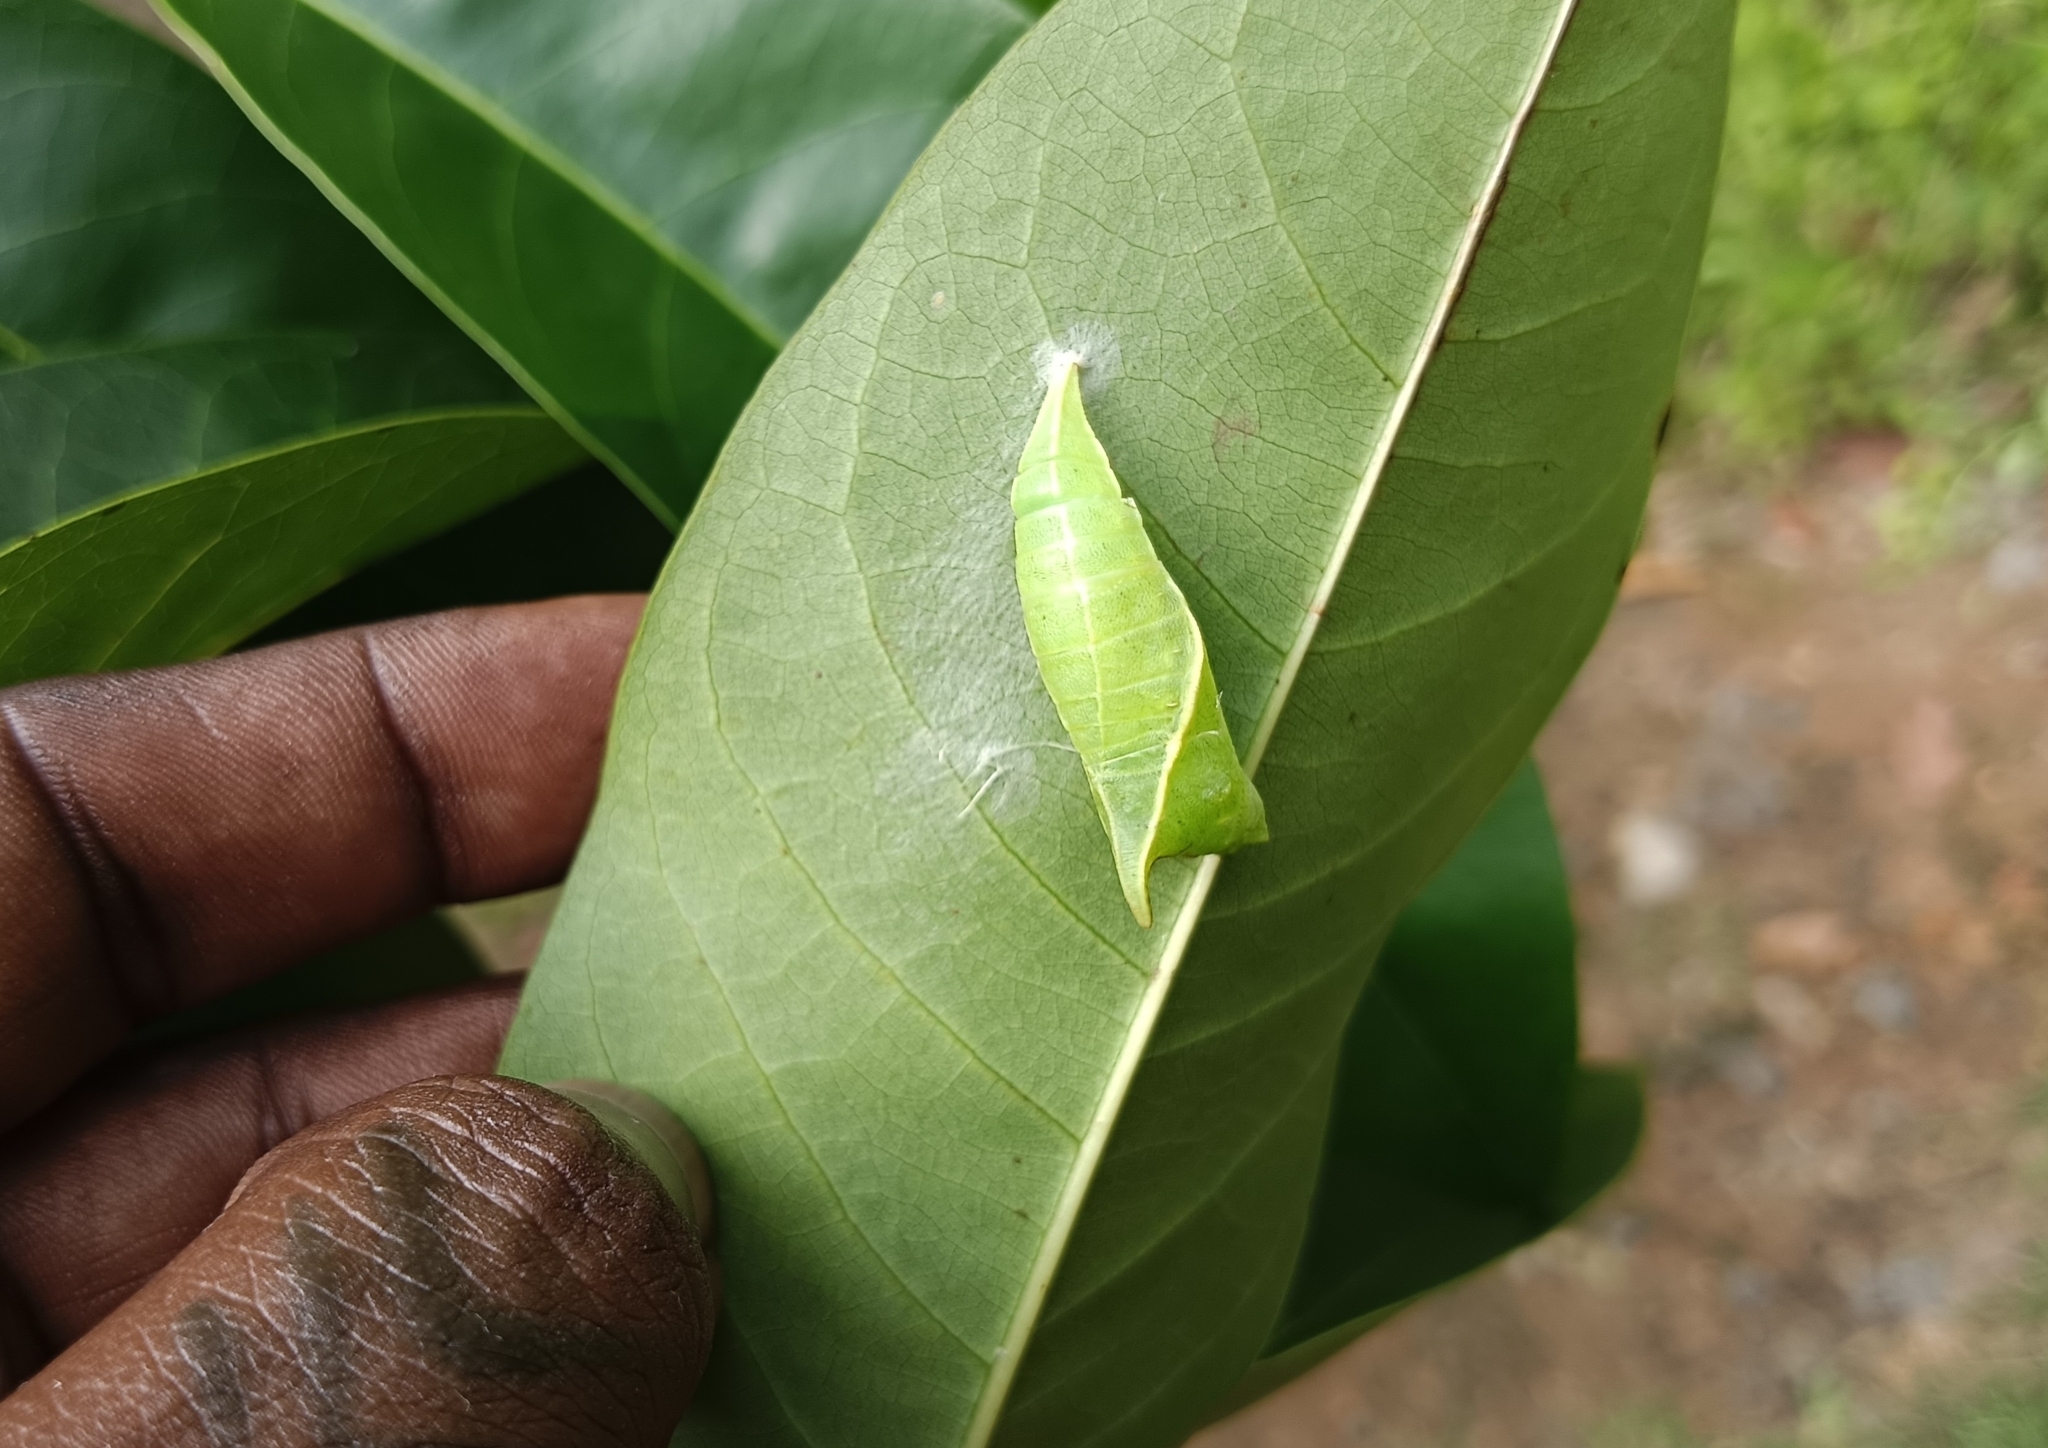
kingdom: Animalia
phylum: Arthropoda
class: Insecta
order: Lepidoptera
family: Papilionidae
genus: Graphium
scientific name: Graphium doson
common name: Common jay
